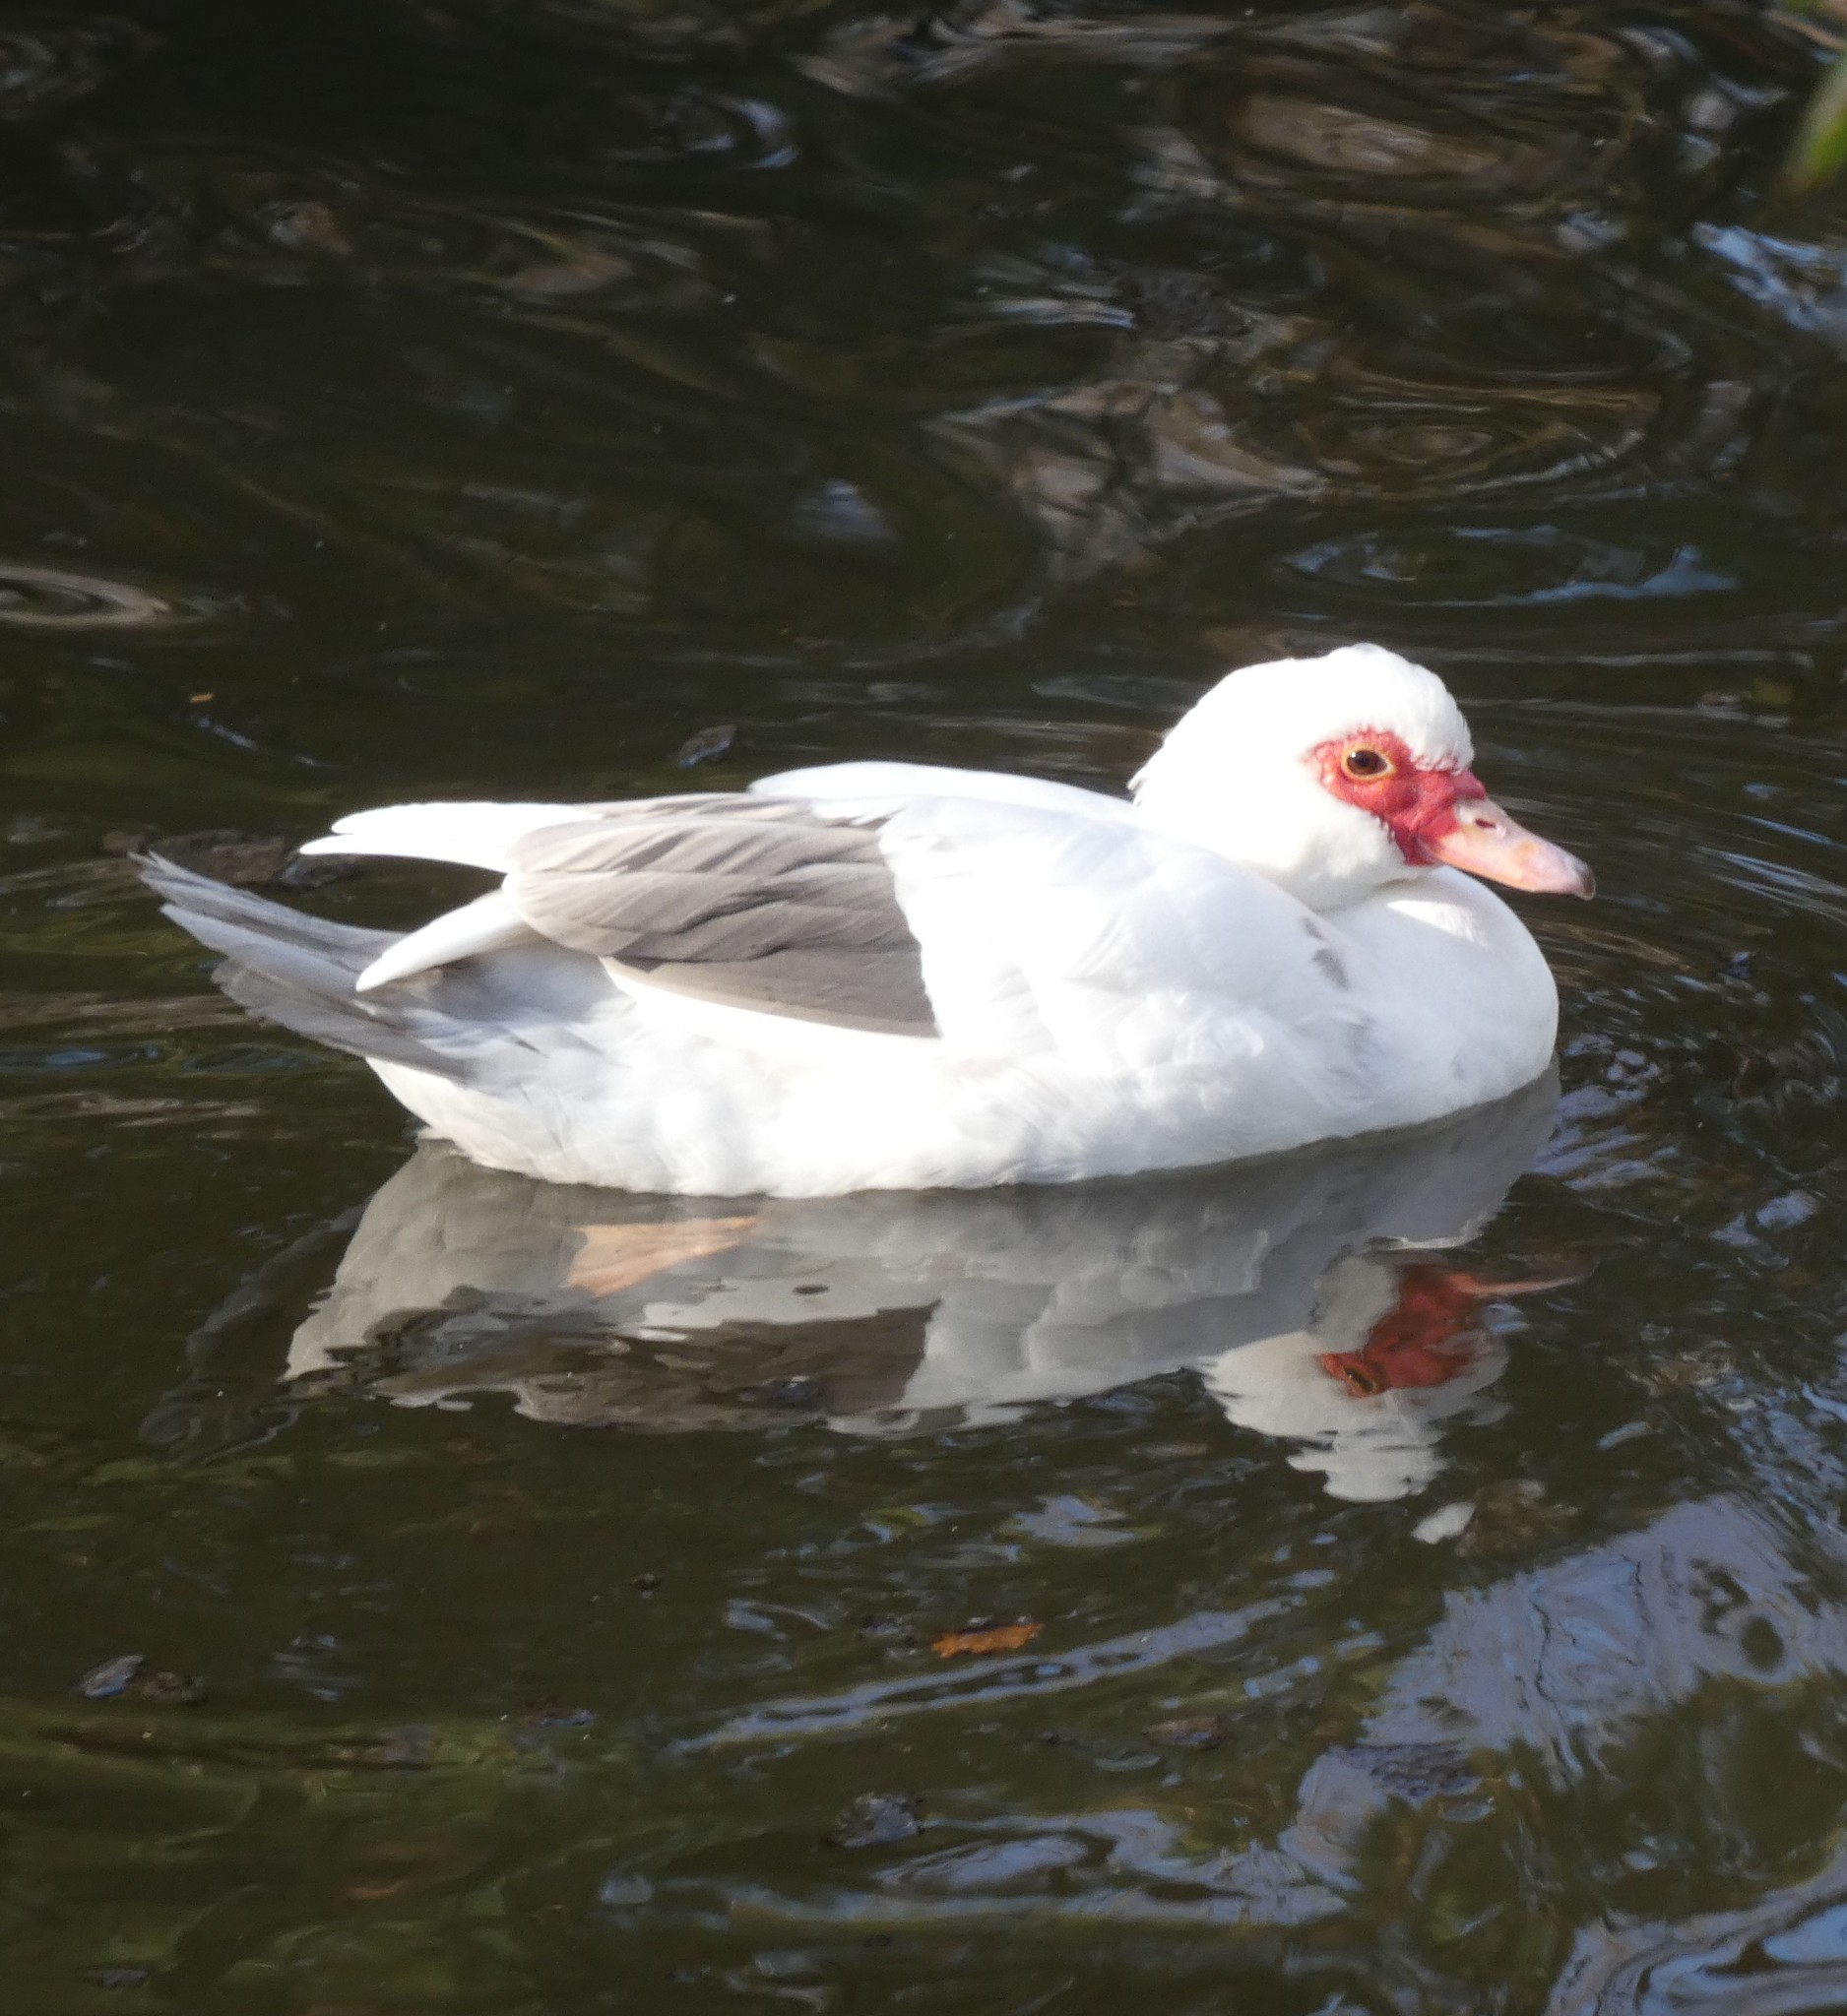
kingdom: Animalia
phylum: Chordata
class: Aves
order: Anseriformes
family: Anatidae
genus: Cairina
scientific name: Cairina moschata
